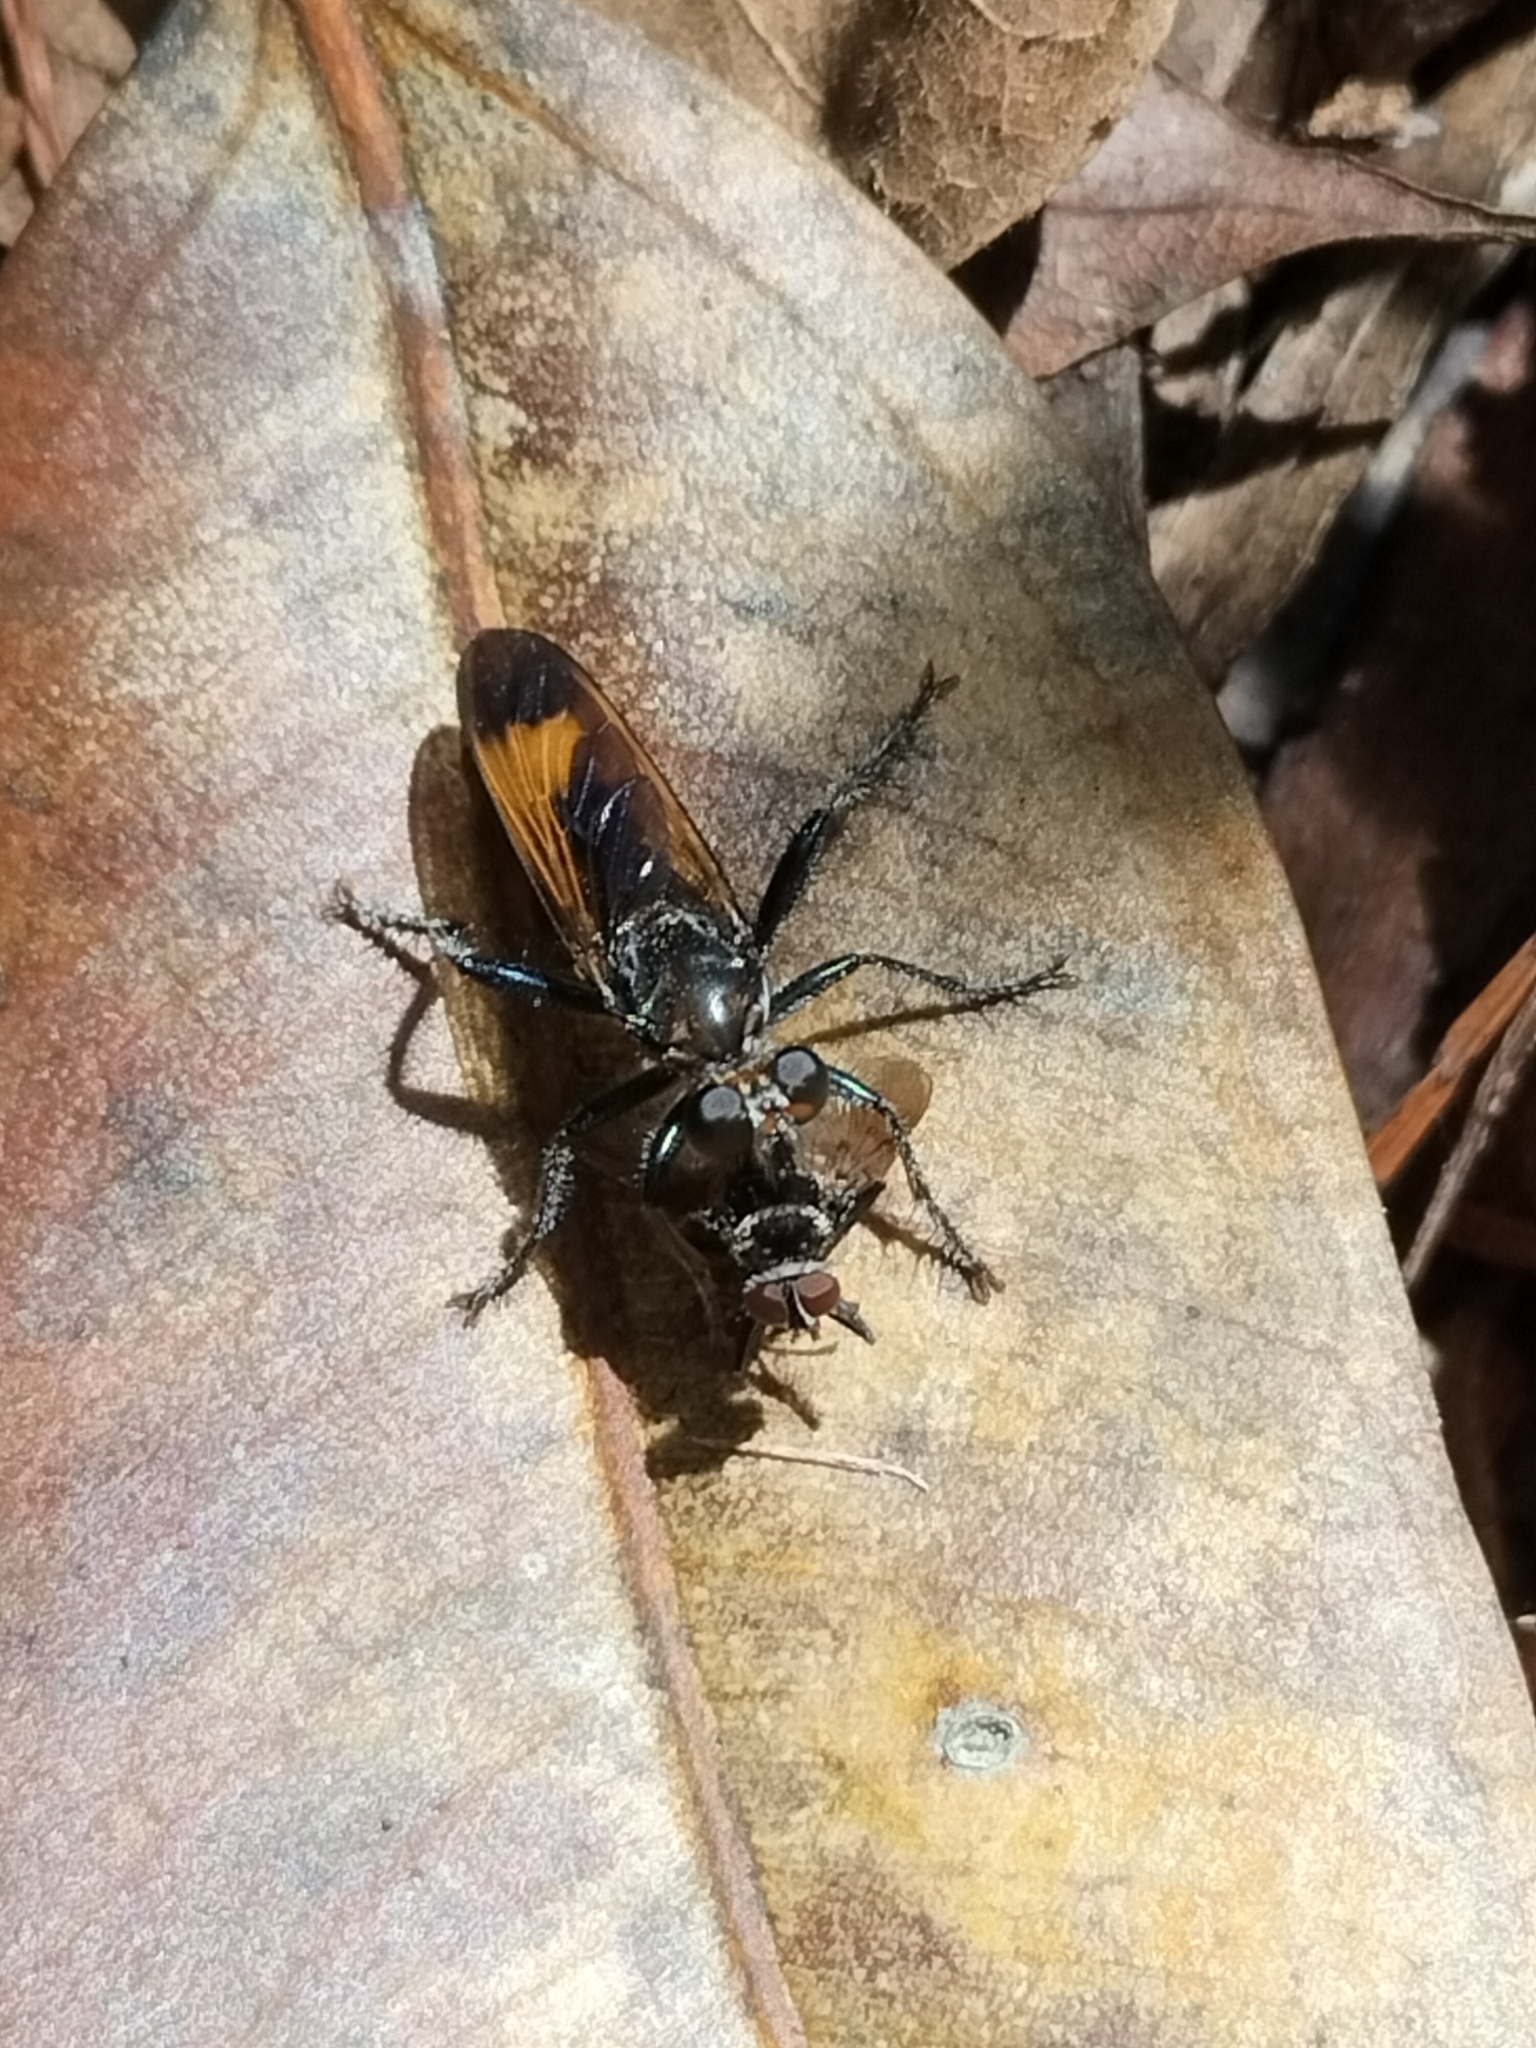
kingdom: Animalia
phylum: Arthropoda
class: Insecta
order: Diptera
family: Asilidae
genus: Orthogonis
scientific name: Orthogonis ornatipennis
